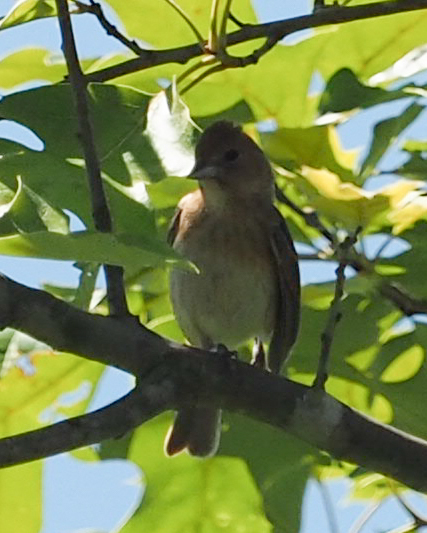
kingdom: Animalia
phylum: Chordata
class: Aves
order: Passeriformes
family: Cardinalidae
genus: Passerina
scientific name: Passerina cyanea
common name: Indigo bunting
